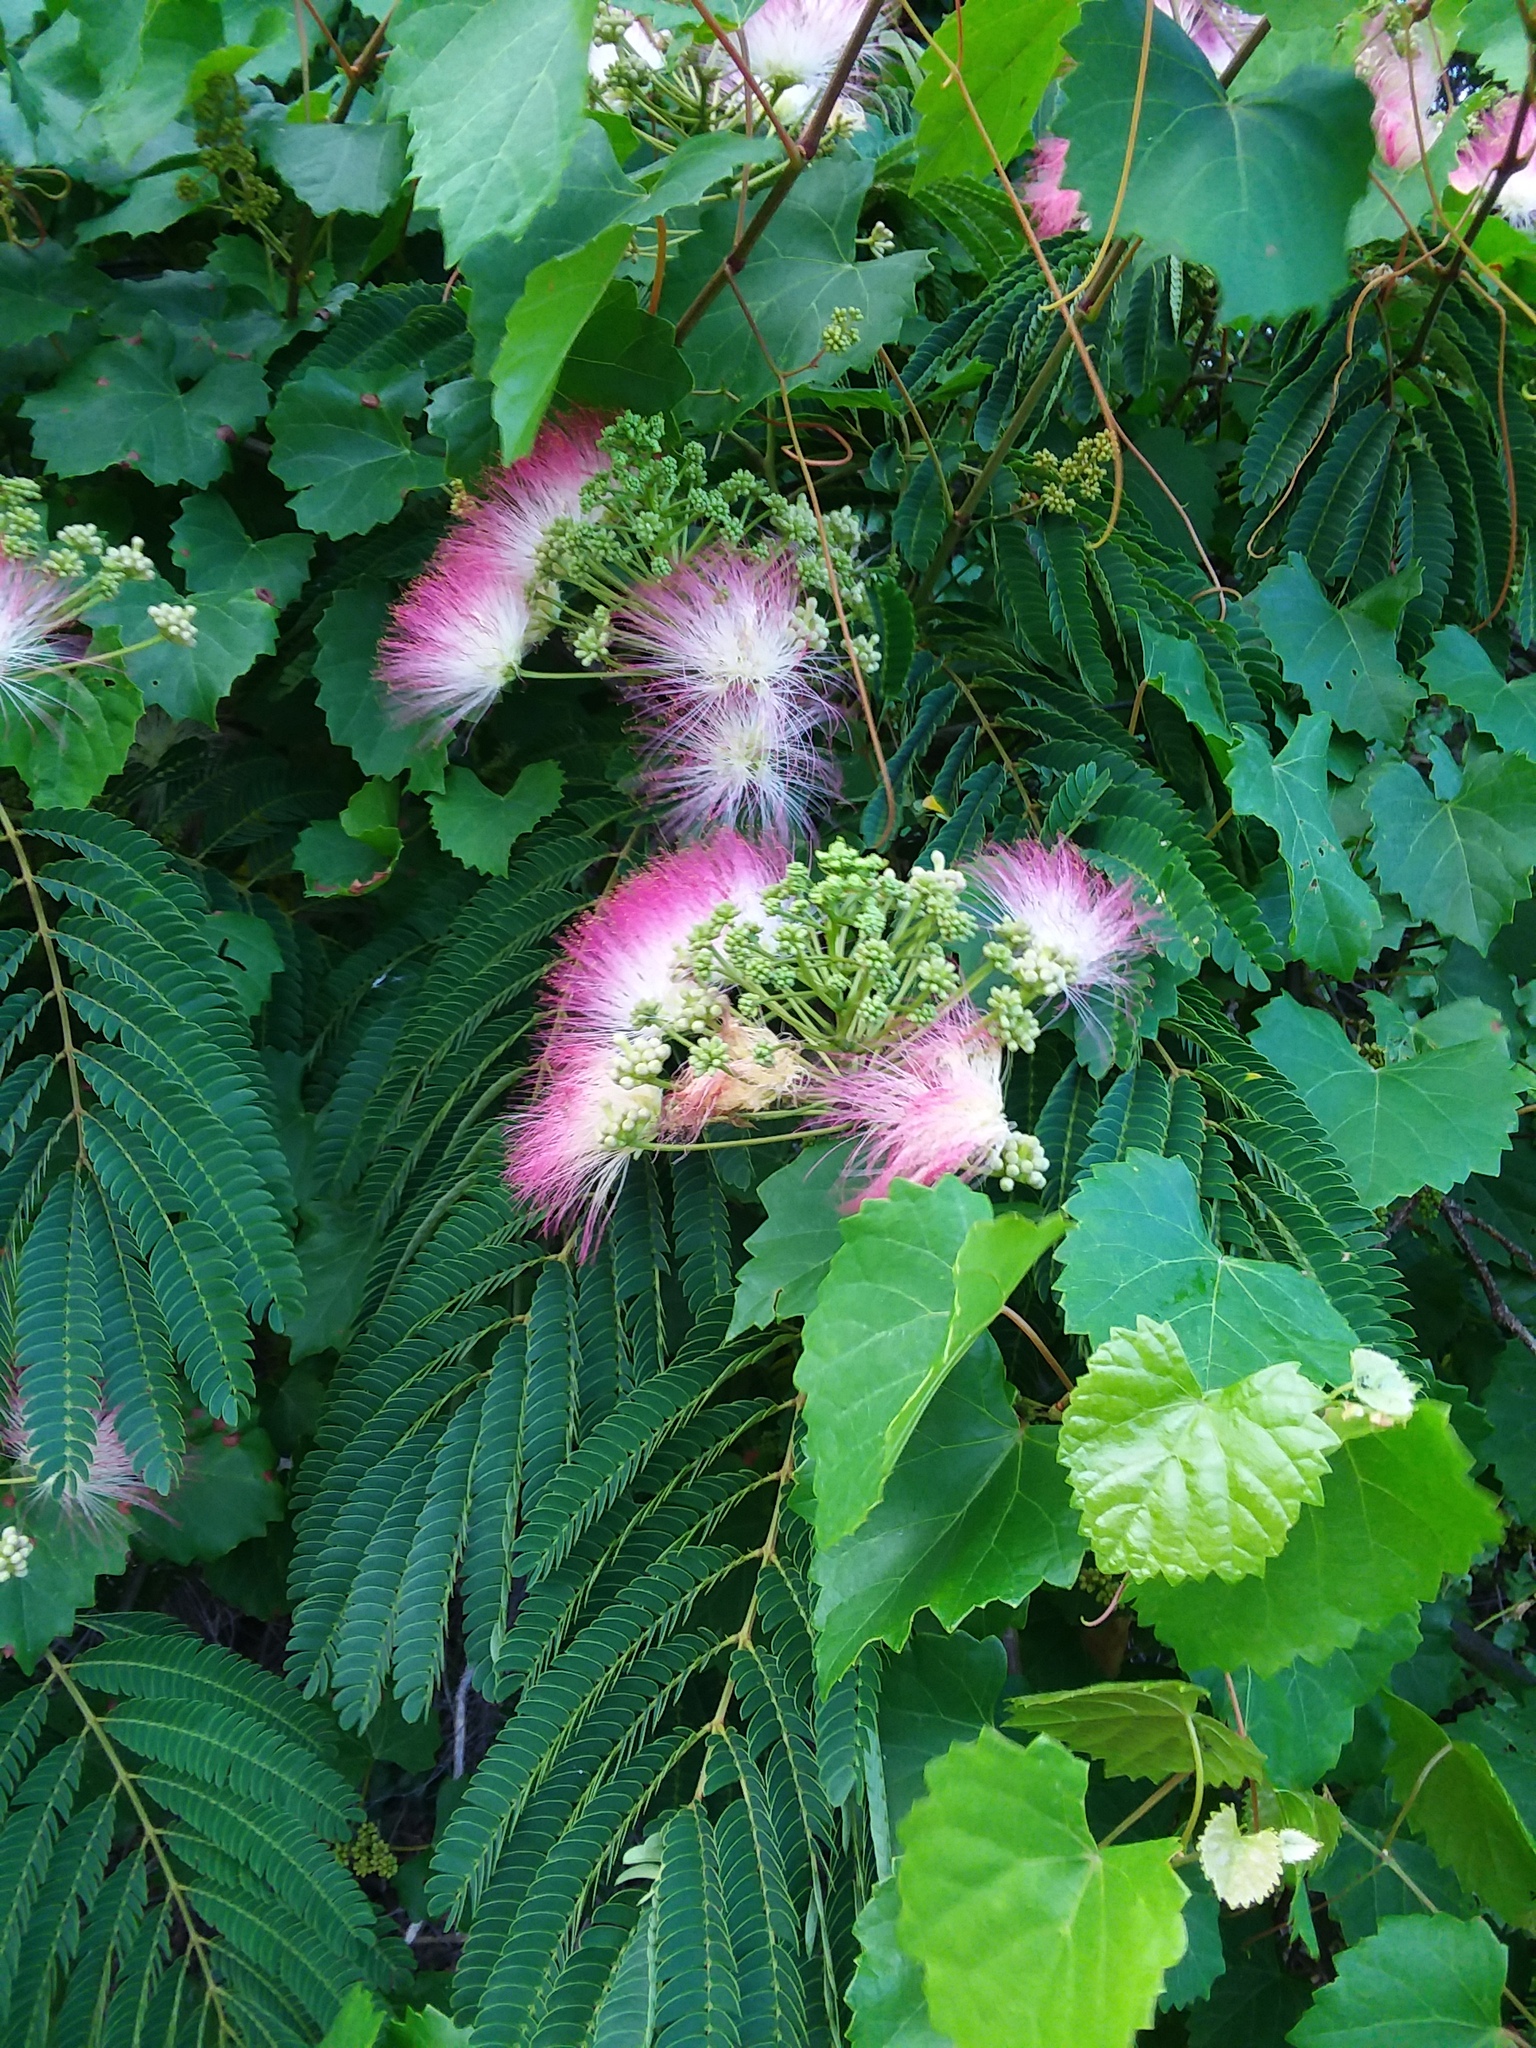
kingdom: Plantae
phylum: Tracheophyta
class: Magnoliopsida
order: Fabales
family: Fabaceae
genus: Albizia
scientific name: Albizia julibrissin
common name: Silktree
